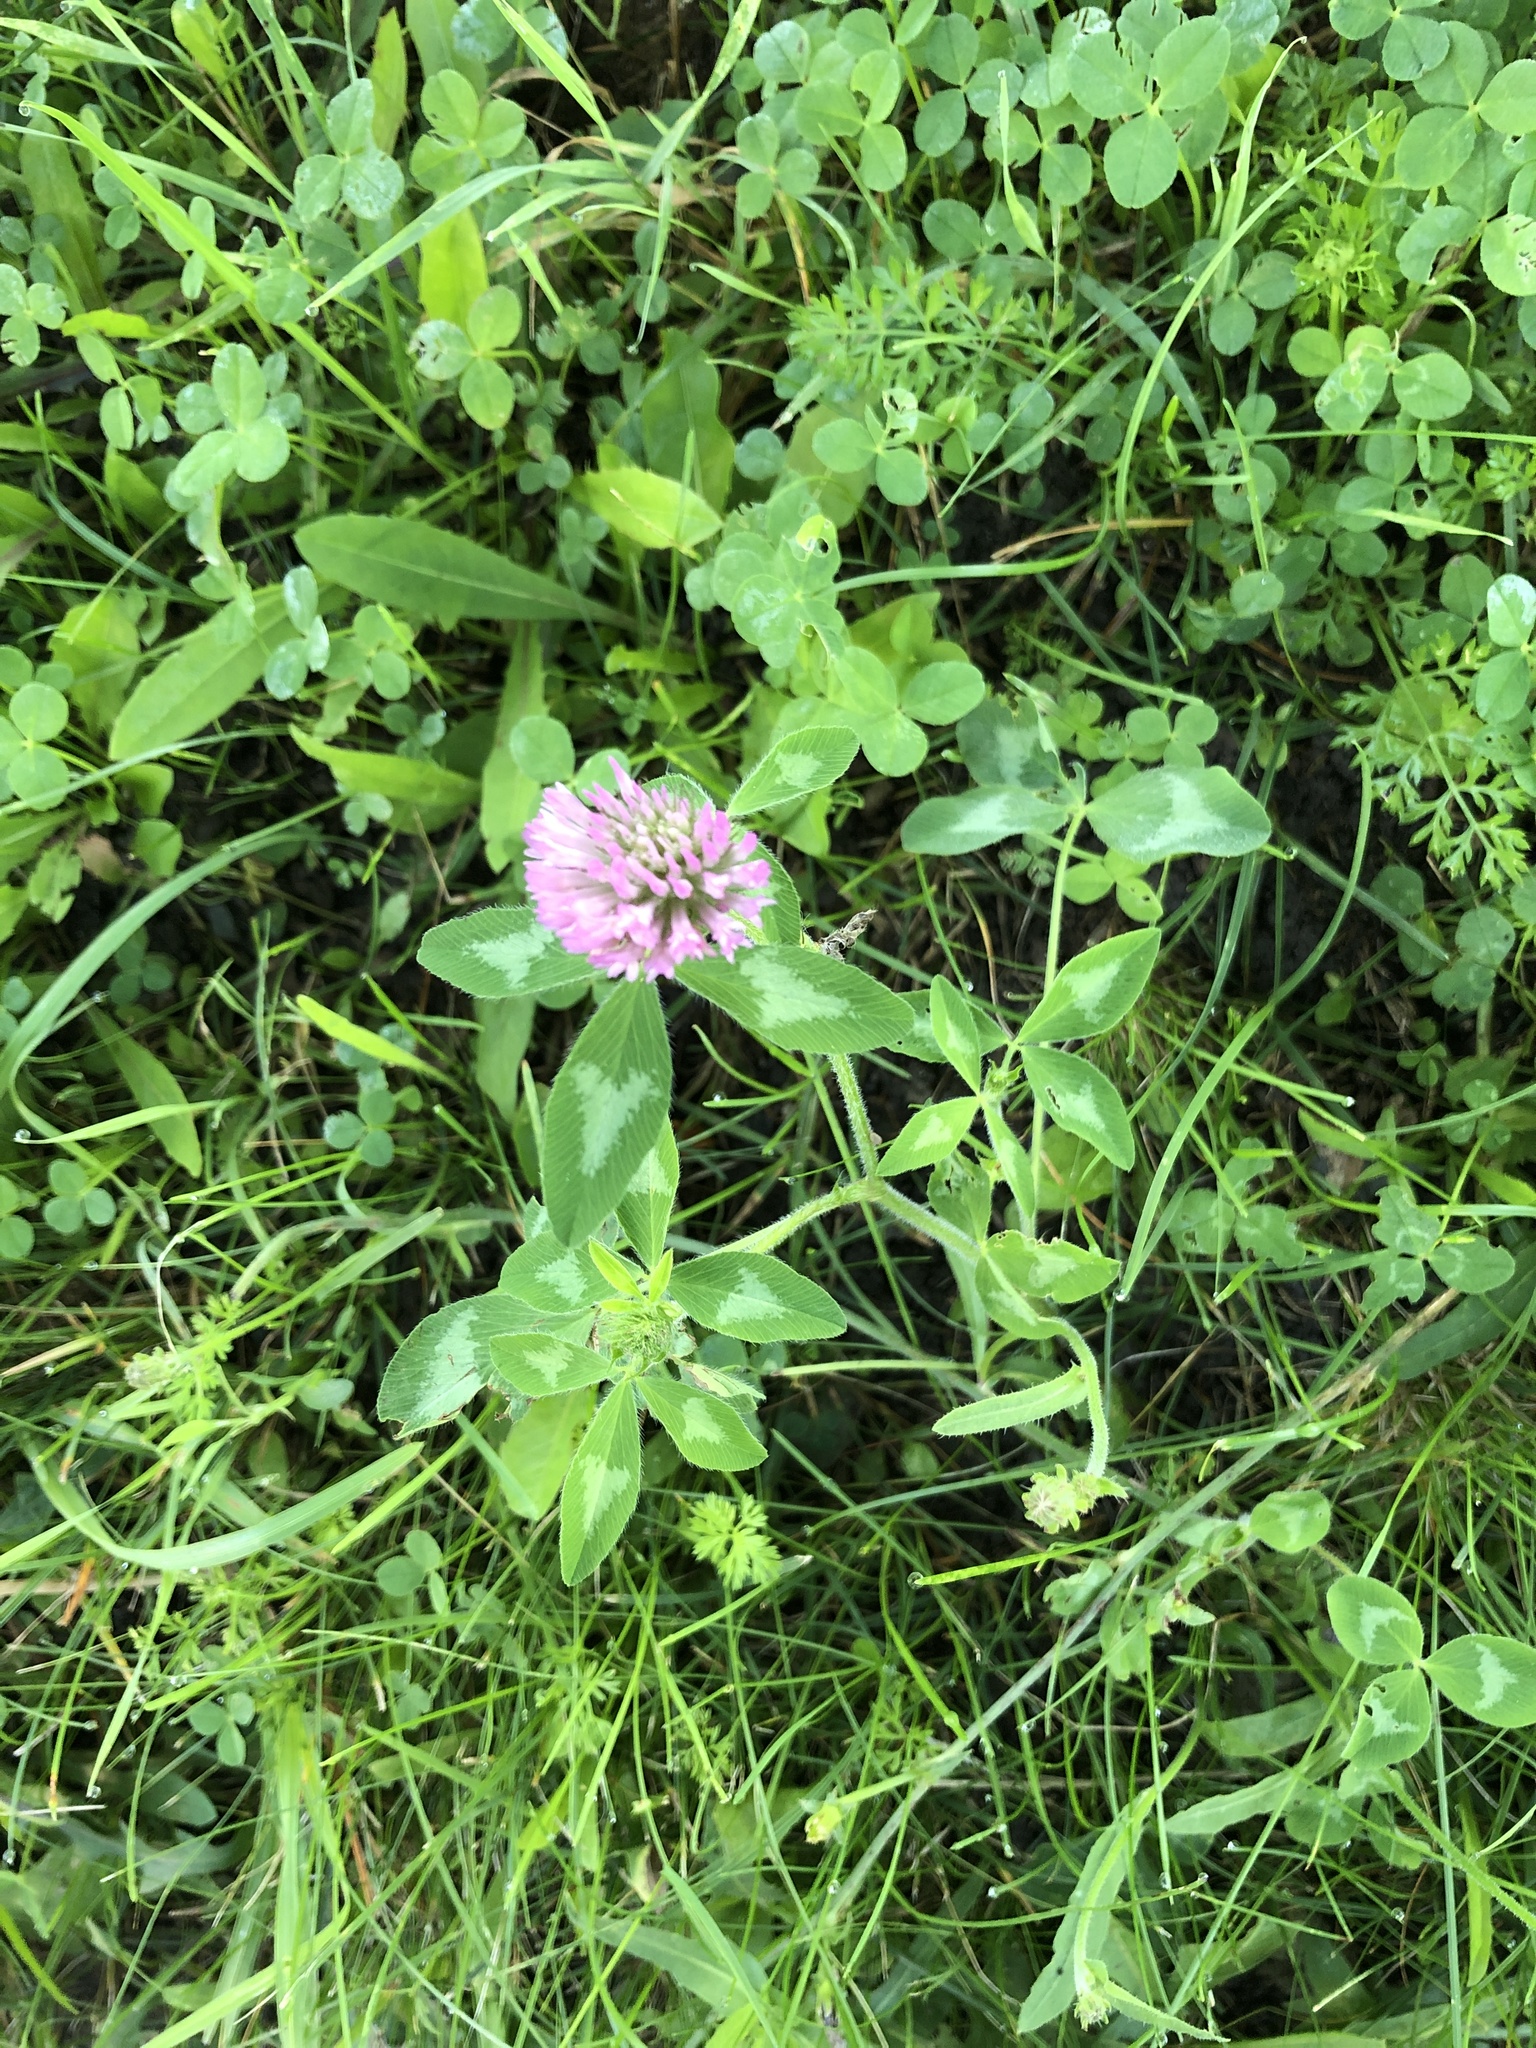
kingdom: Plantae
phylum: Tracheophyta
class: Magnoliopsida
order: Fabales
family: Fabaceae
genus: Trifolium
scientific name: Trifolium pratense
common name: Red clover
